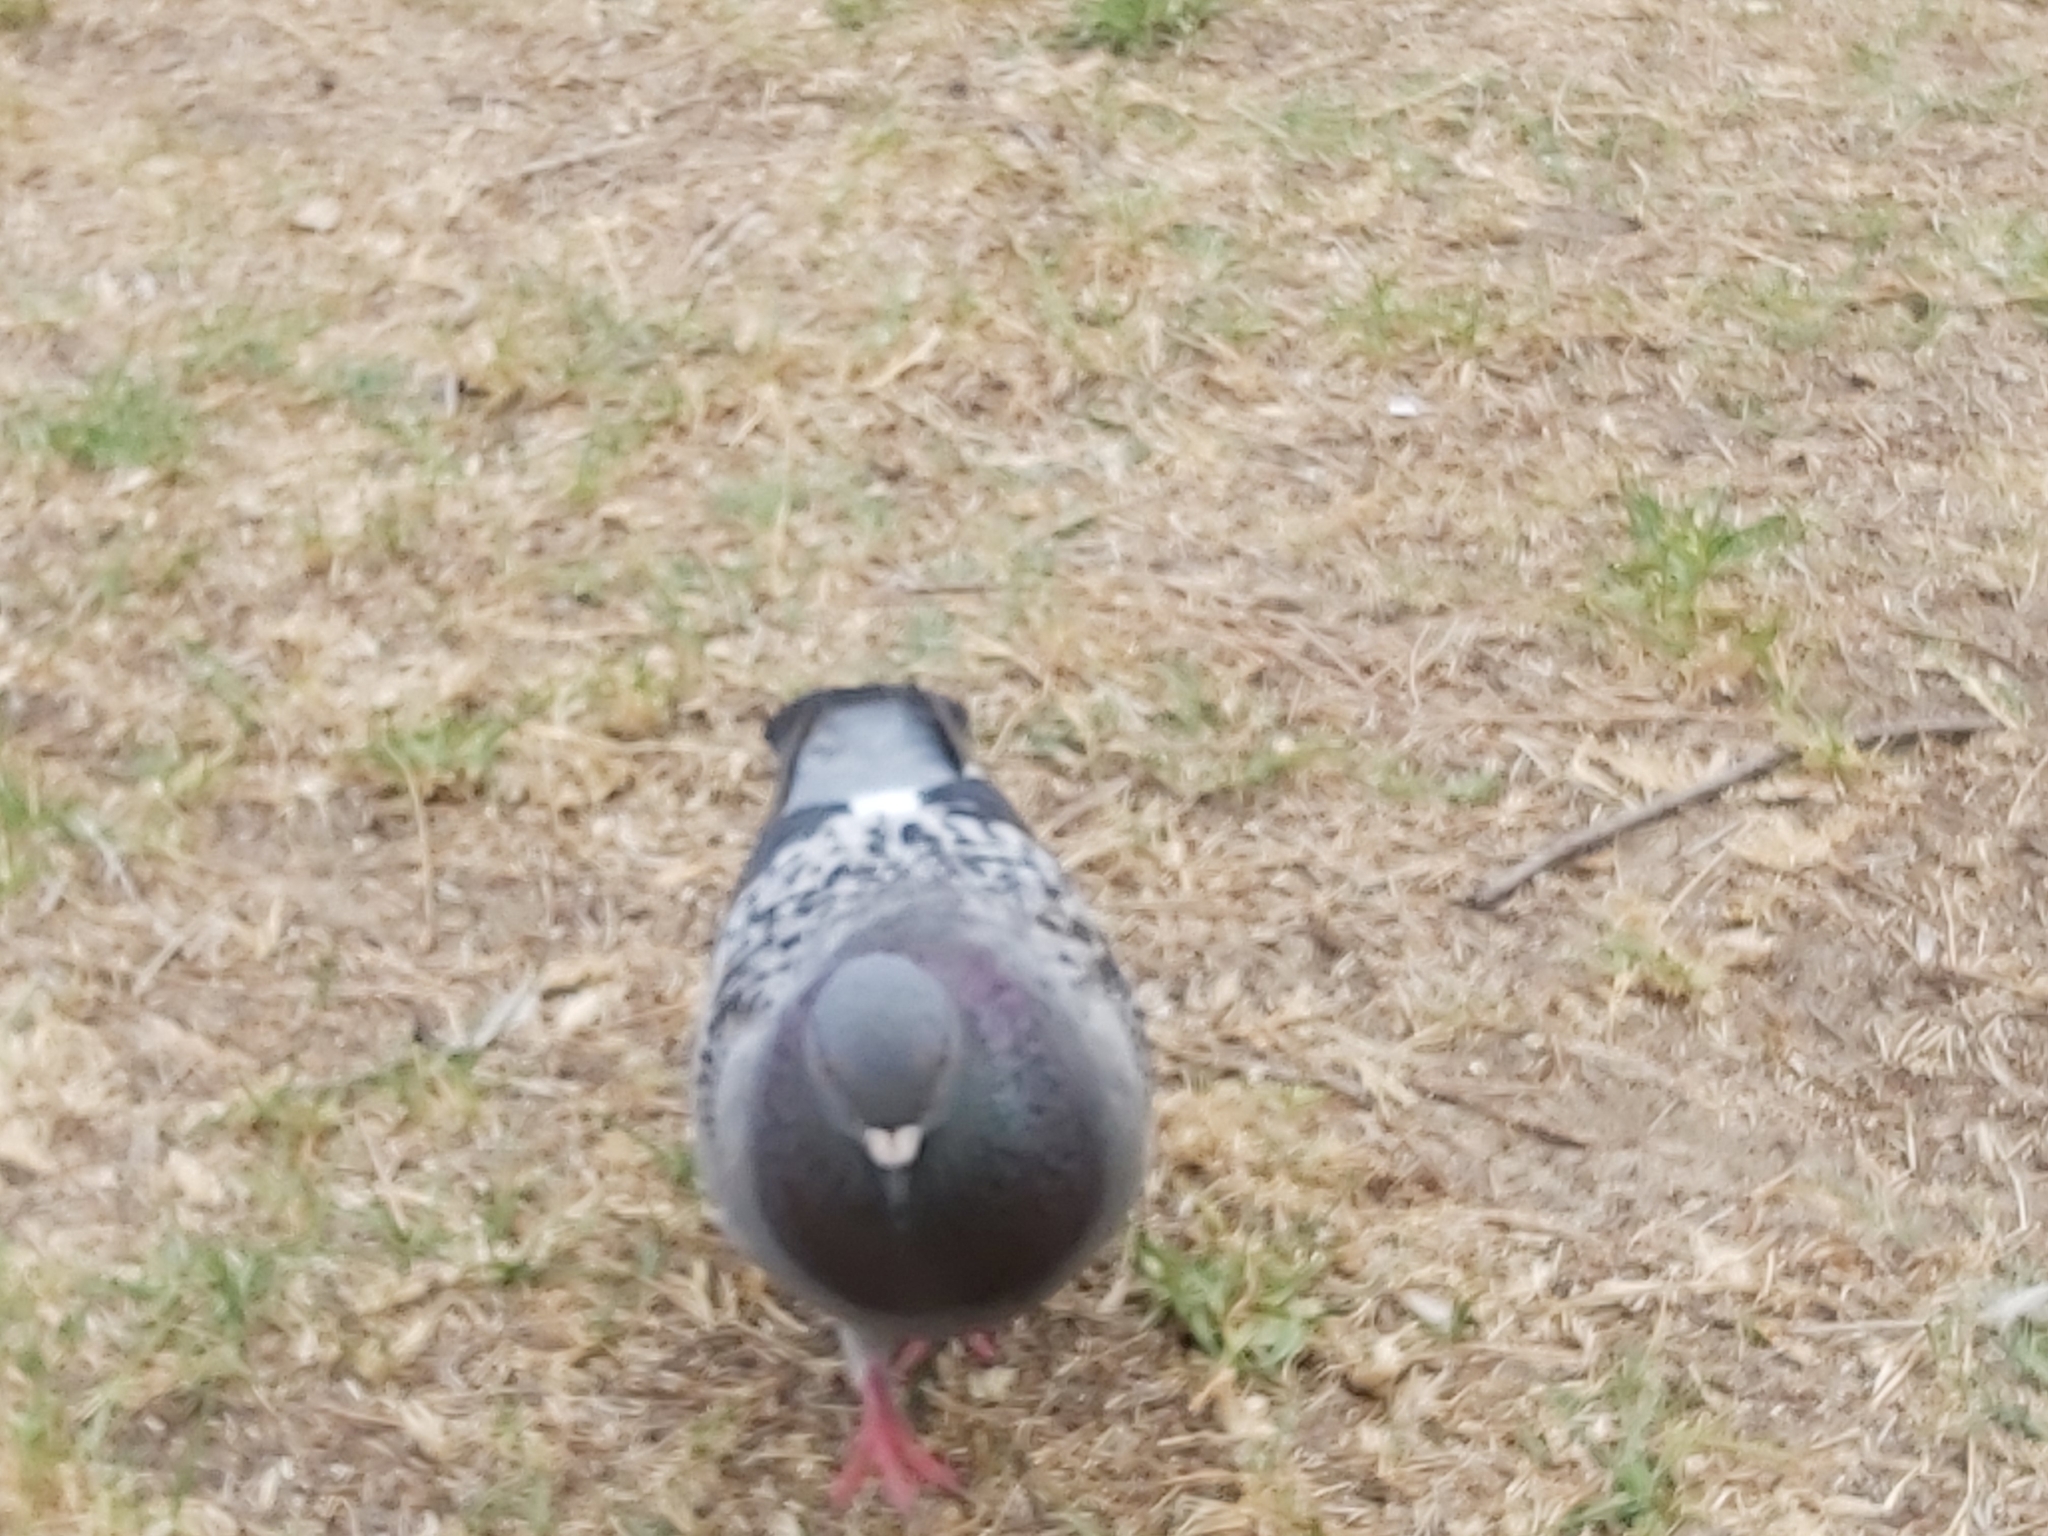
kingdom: Animalia
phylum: Chordata
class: Aves
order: Columbiformes
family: Columbidae
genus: Columba
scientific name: Columba livia
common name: Rock pigeon
